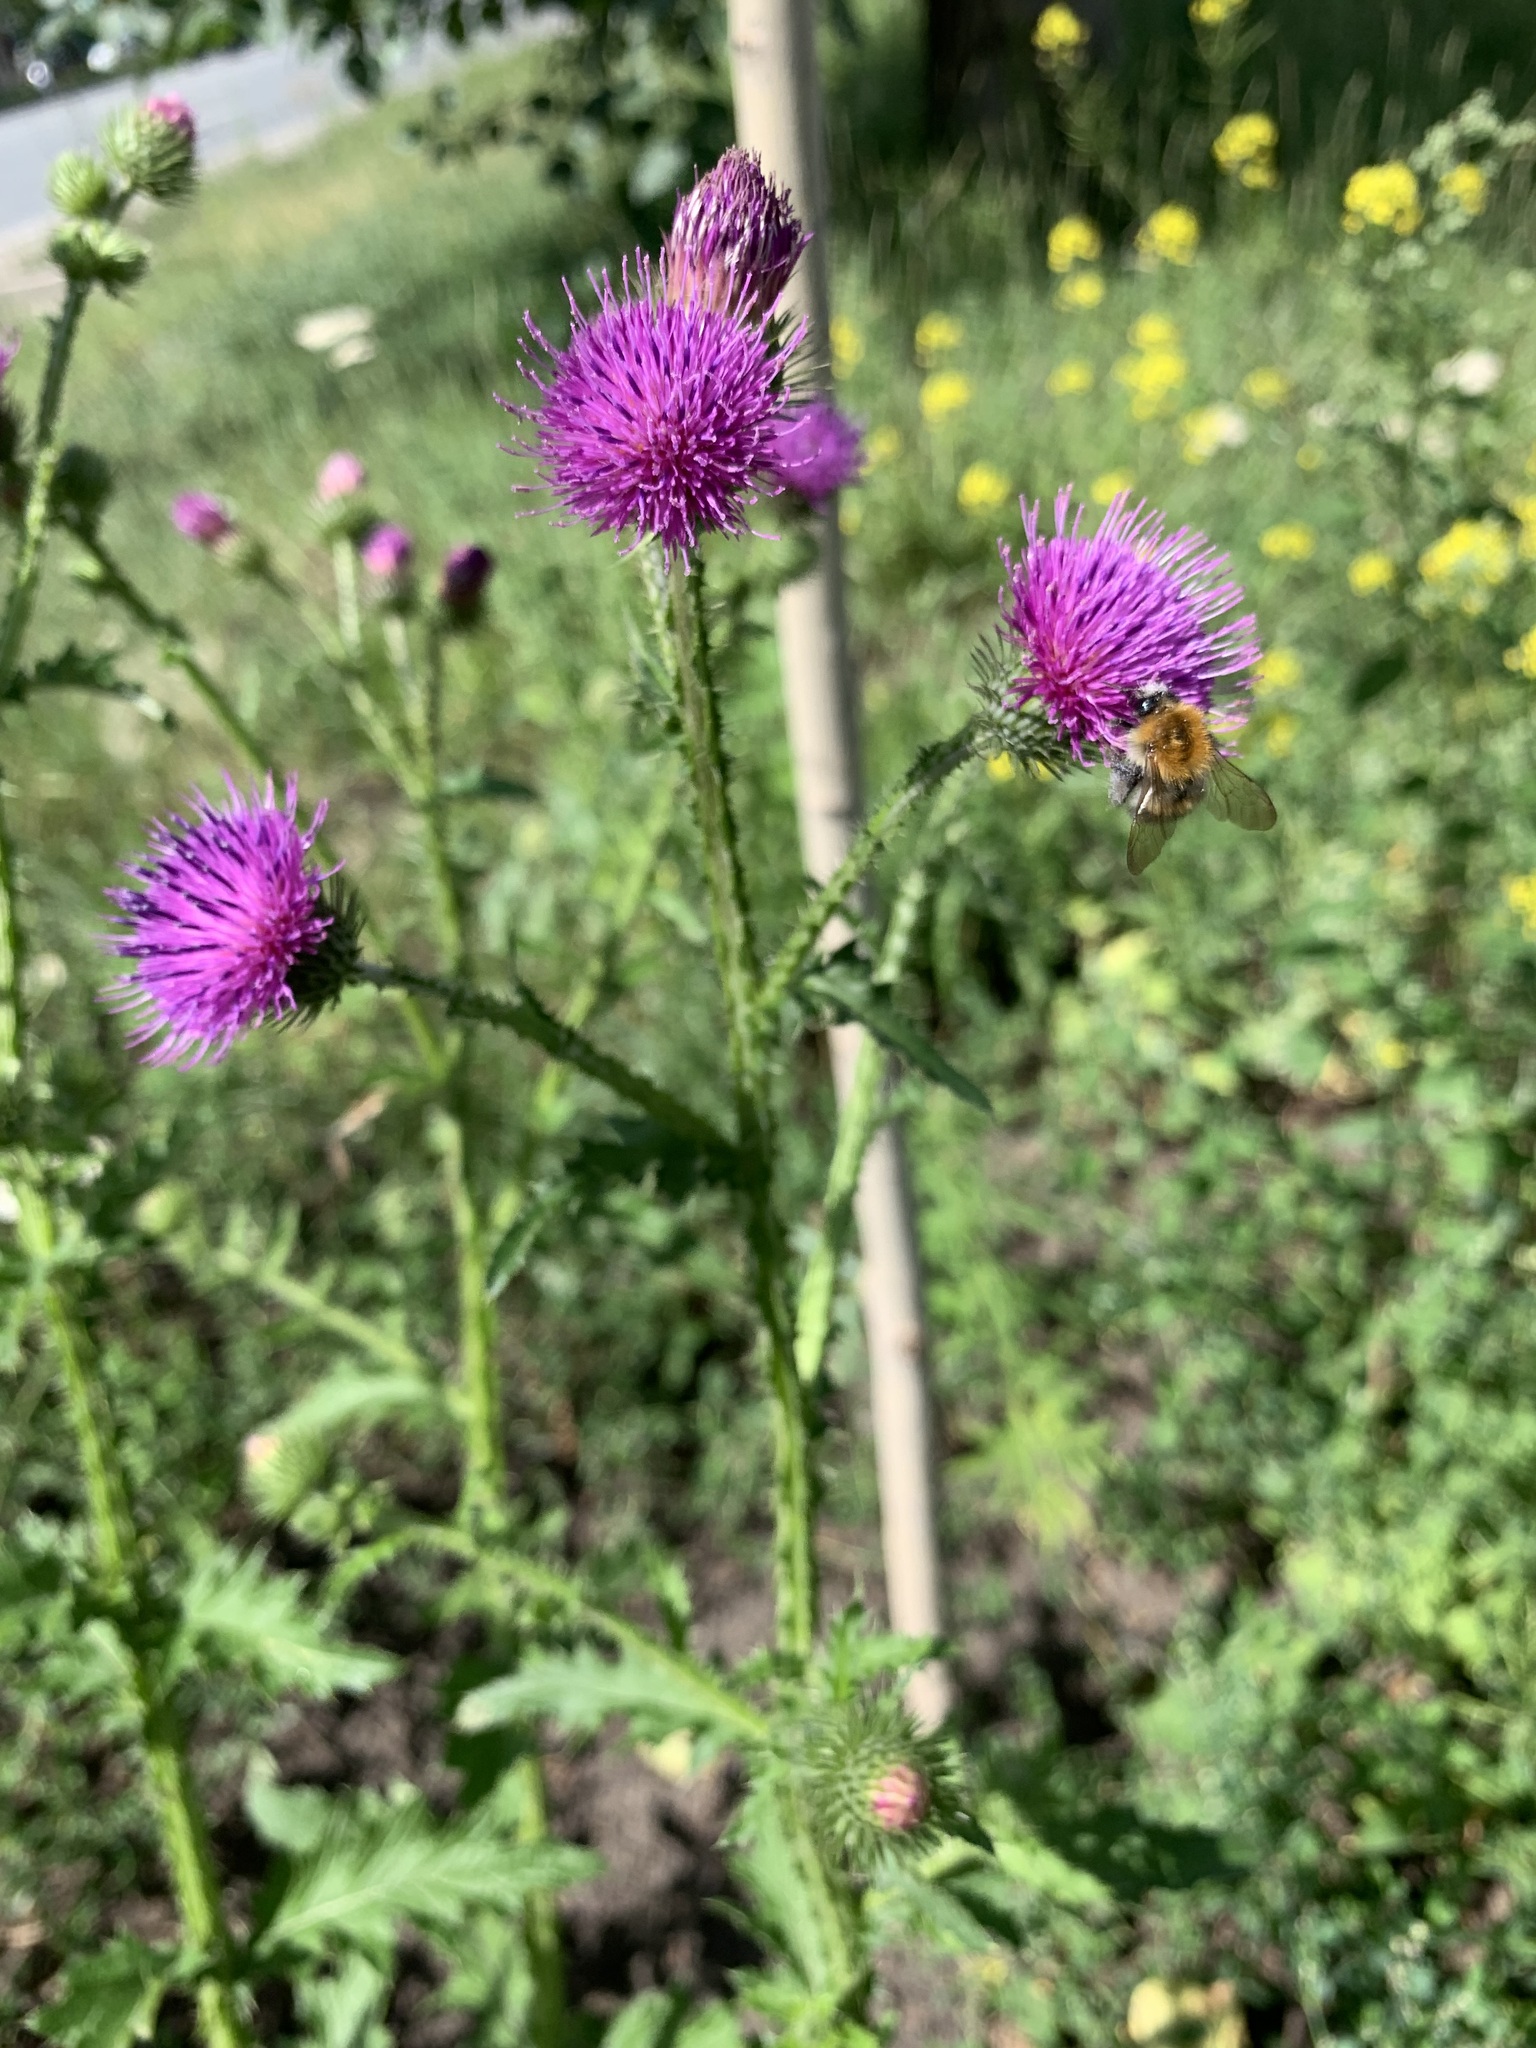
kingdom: Plantae
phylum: Tracheophyta
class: Magnoliopsida
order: Asterales
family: Asteraceae
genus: Carduus
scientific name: Carduus crispus
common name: Welted thistle
